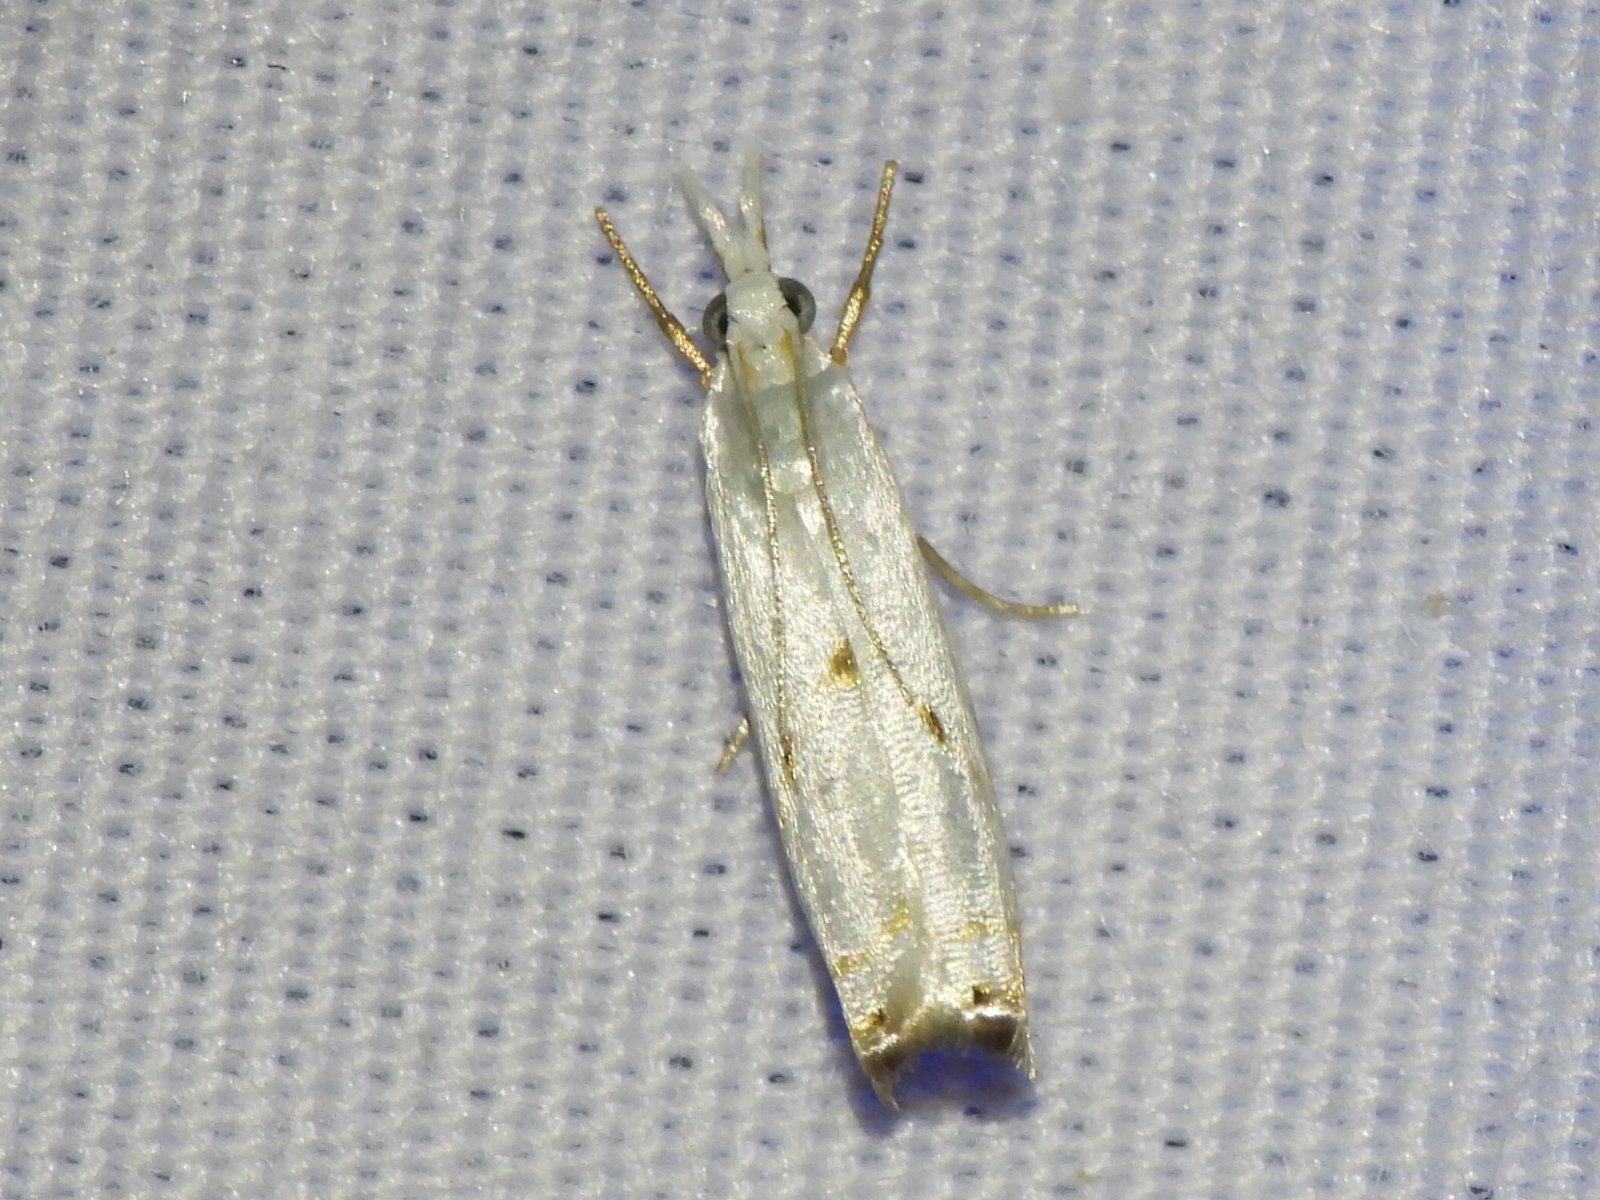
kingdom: Animalia
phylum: Arthropoda
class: Insecta
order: Lepidoptera
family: Crambidae
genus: Microcrambus
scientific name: Microcrambus biguttellus
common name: Gold-stripe grass-veneer moth
